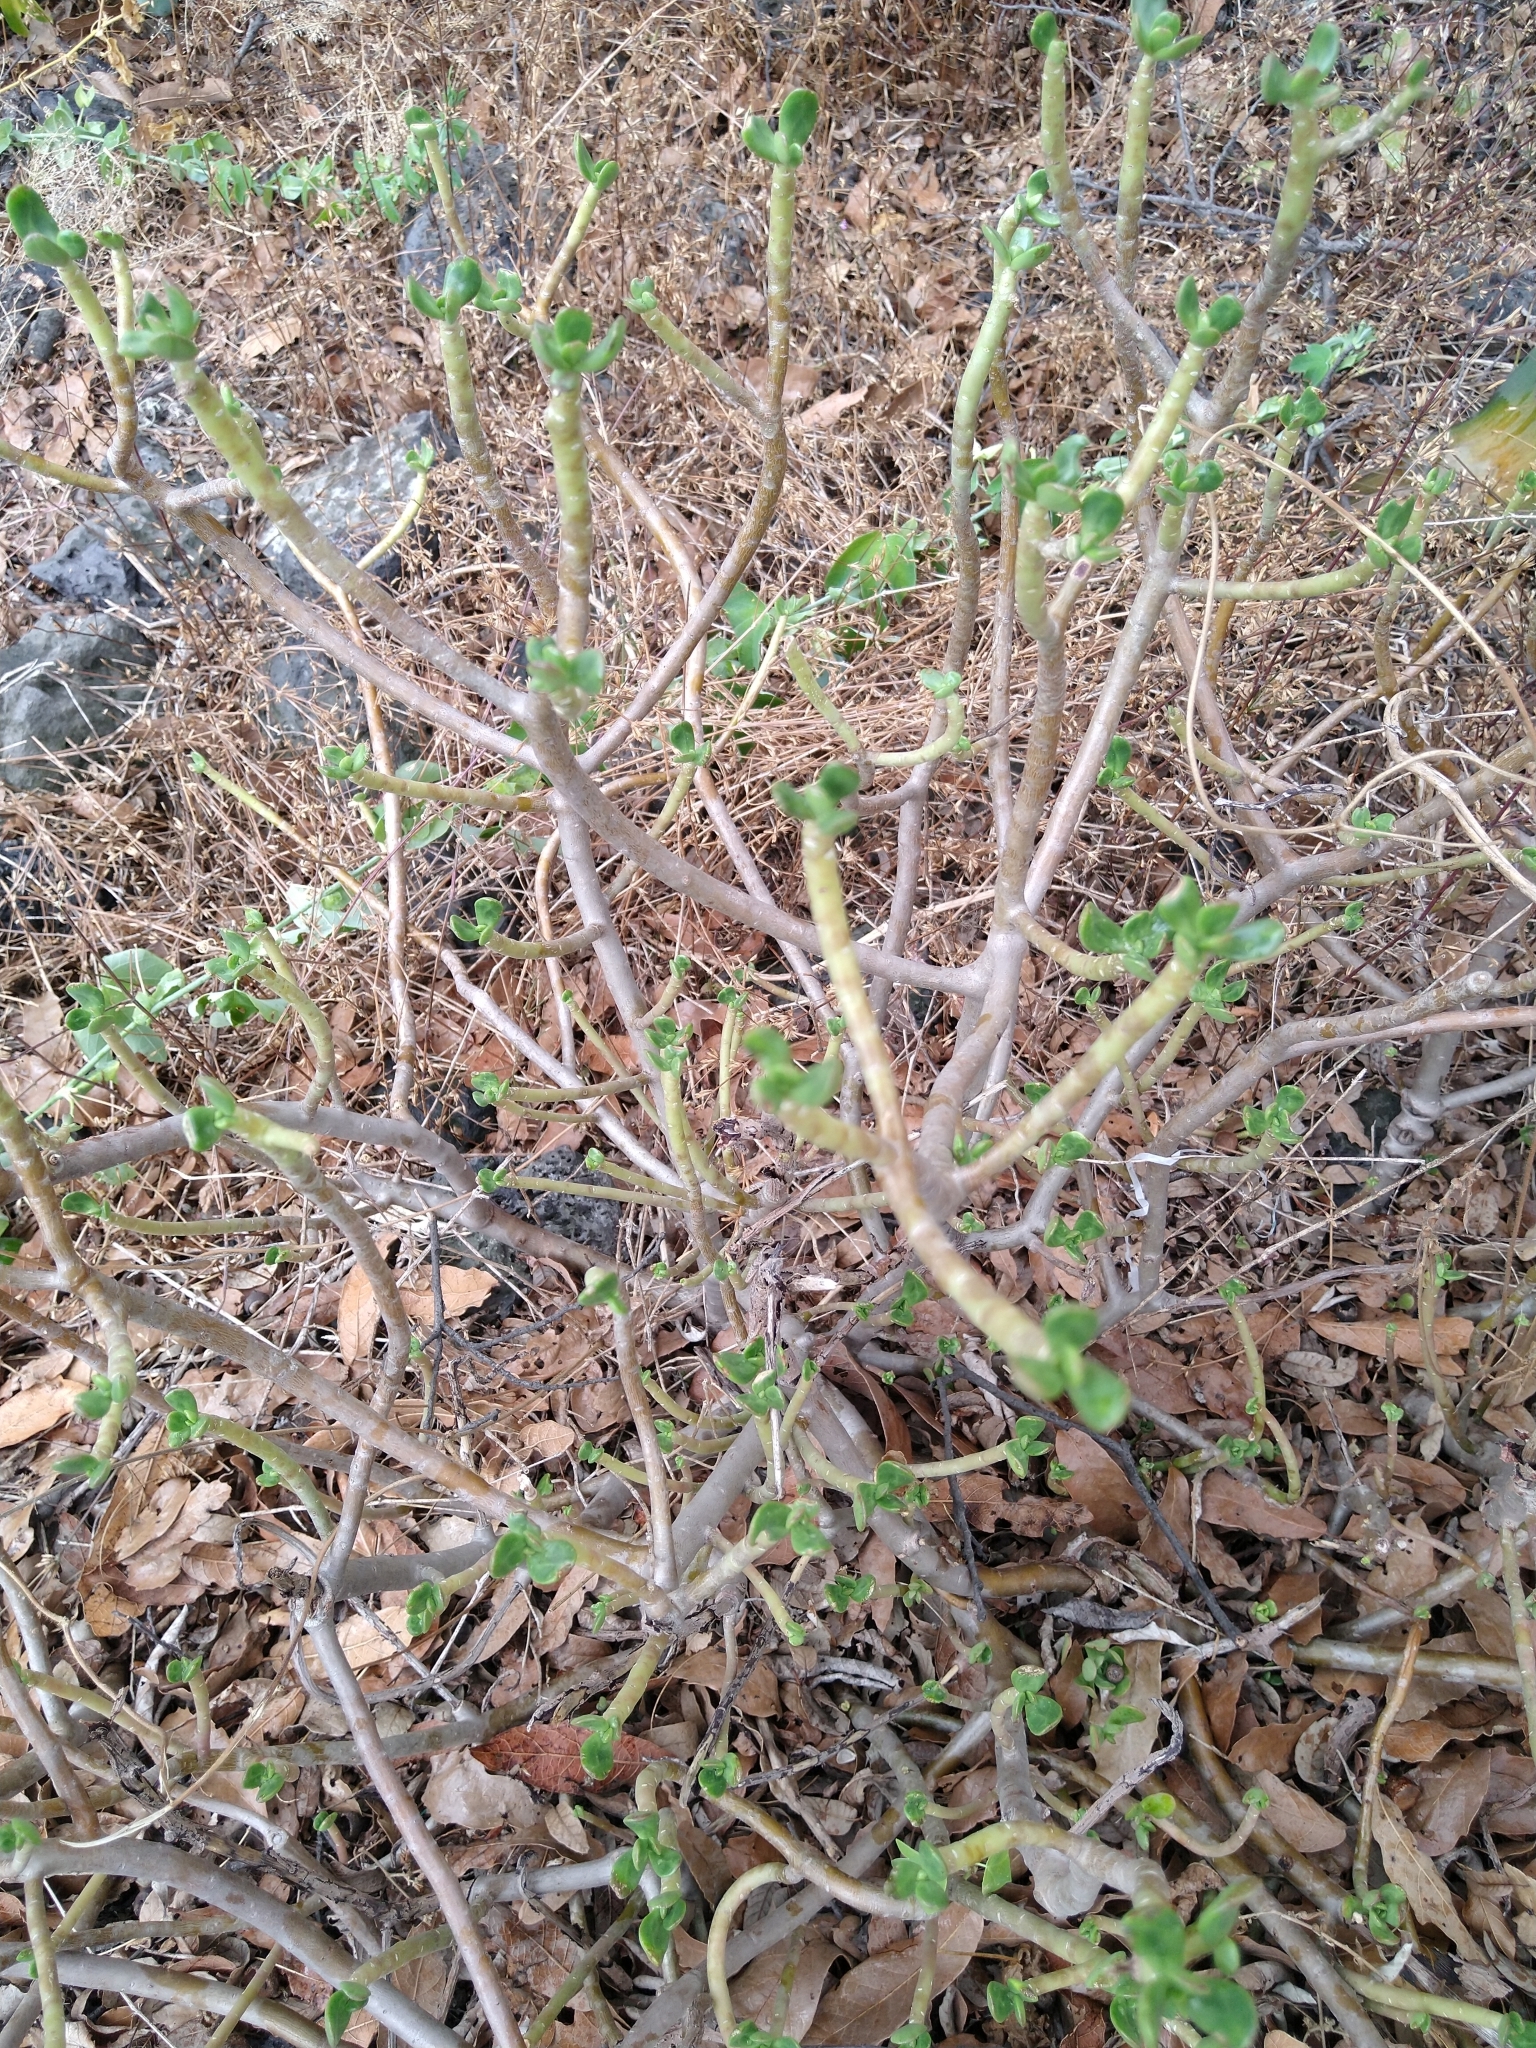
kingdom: Plantae
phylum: Tracheophyta
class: Magnoliopsida
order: Saxifragales
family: Crassulaceae
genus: Pachysedum
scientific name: Pachysedum
